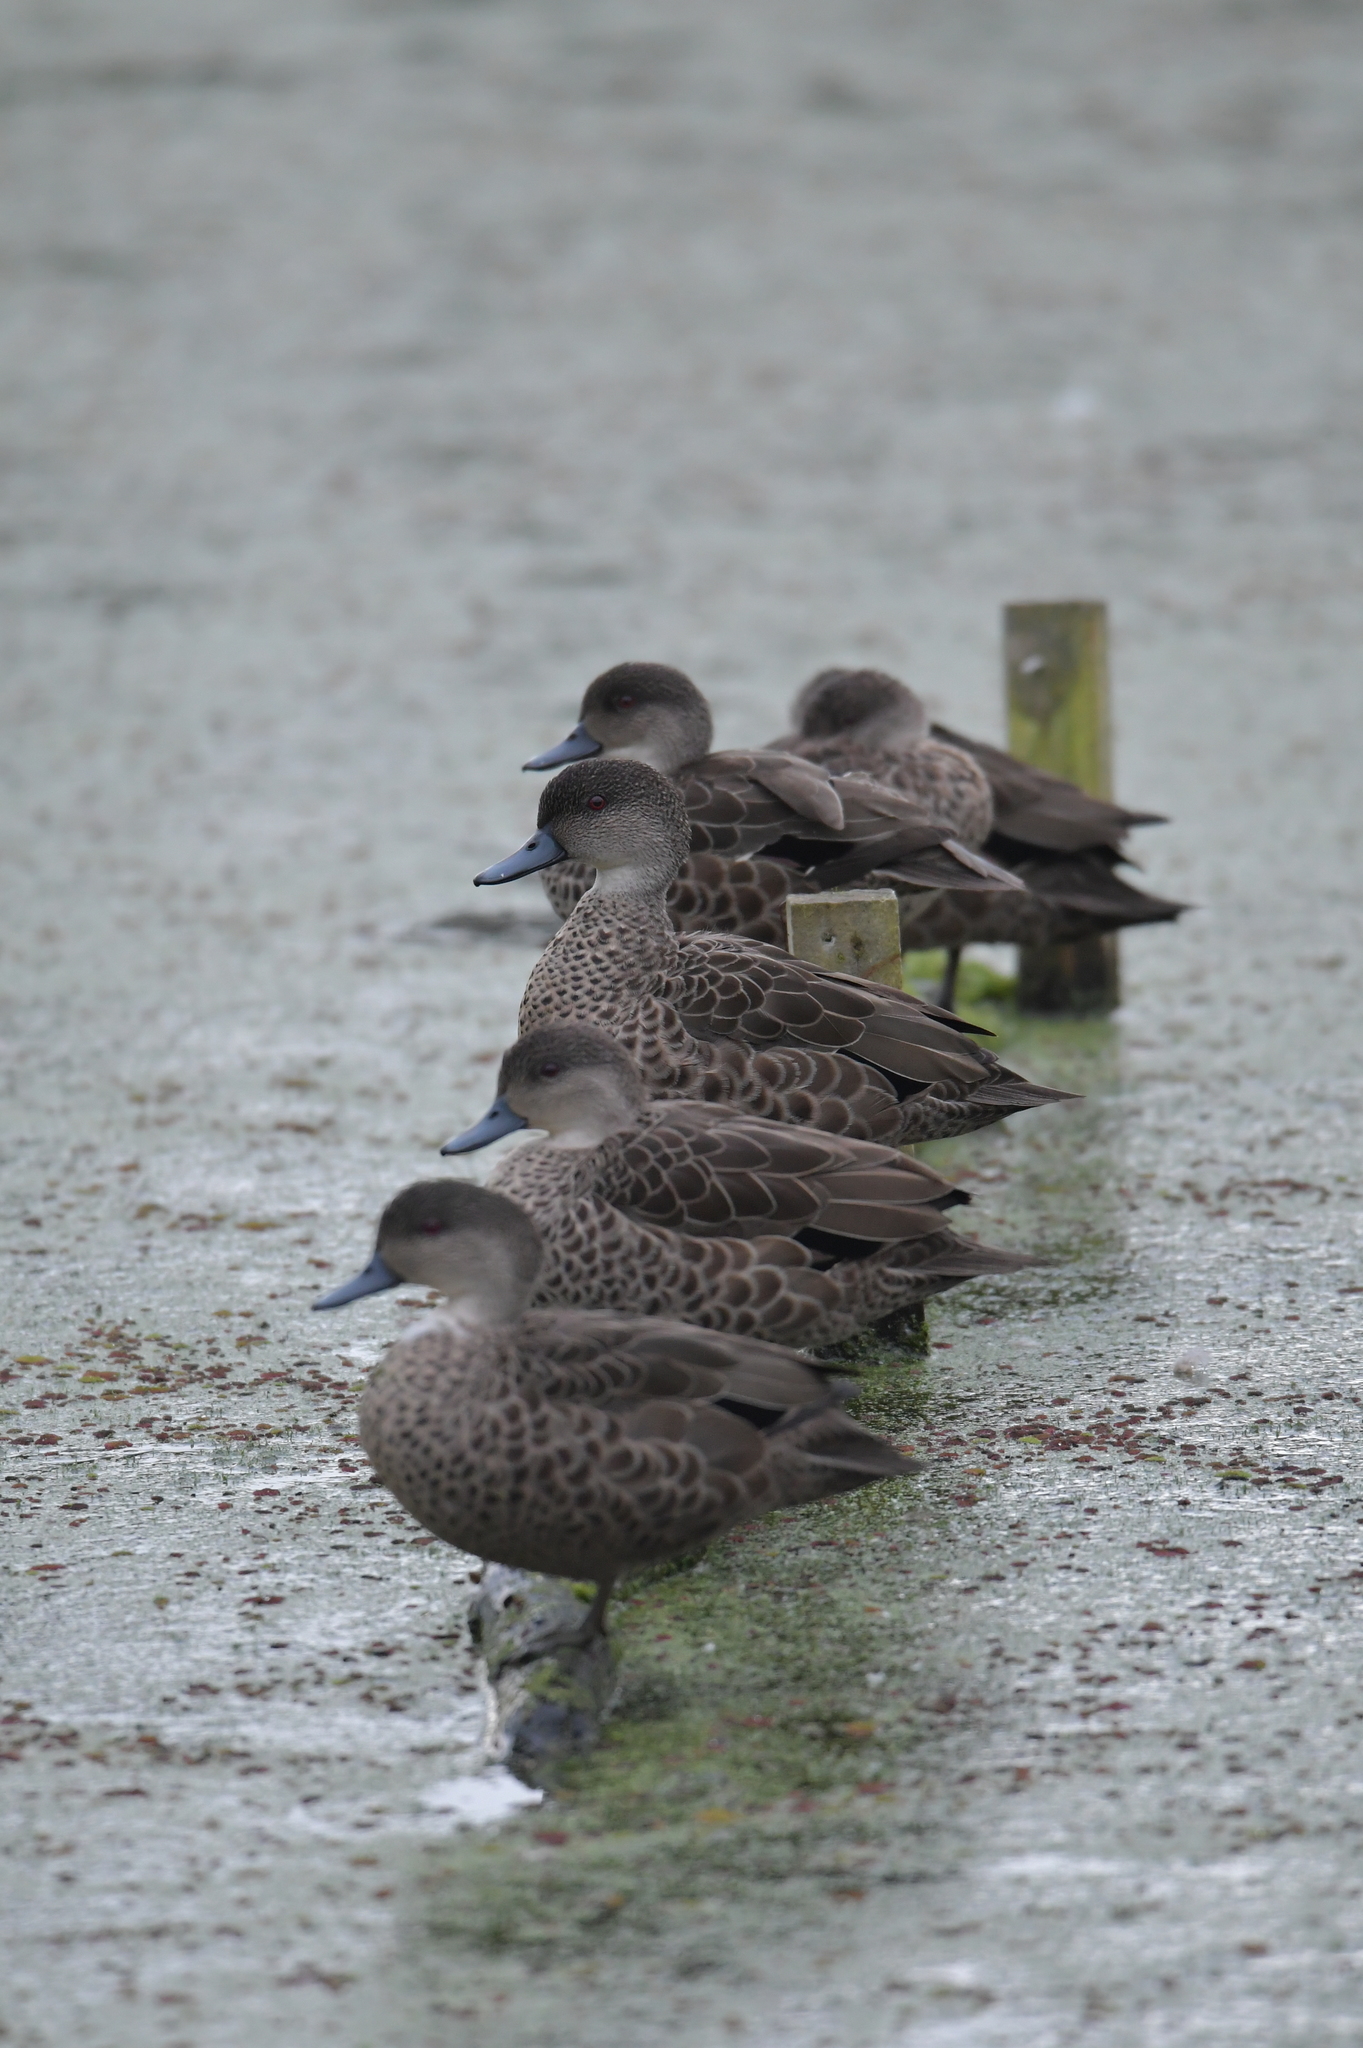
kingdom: Animalia
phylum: Chordata
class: Aves
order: Anseriformes
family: Anatidae
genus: Anas
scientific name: Anas gracilis
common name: Grey teal
